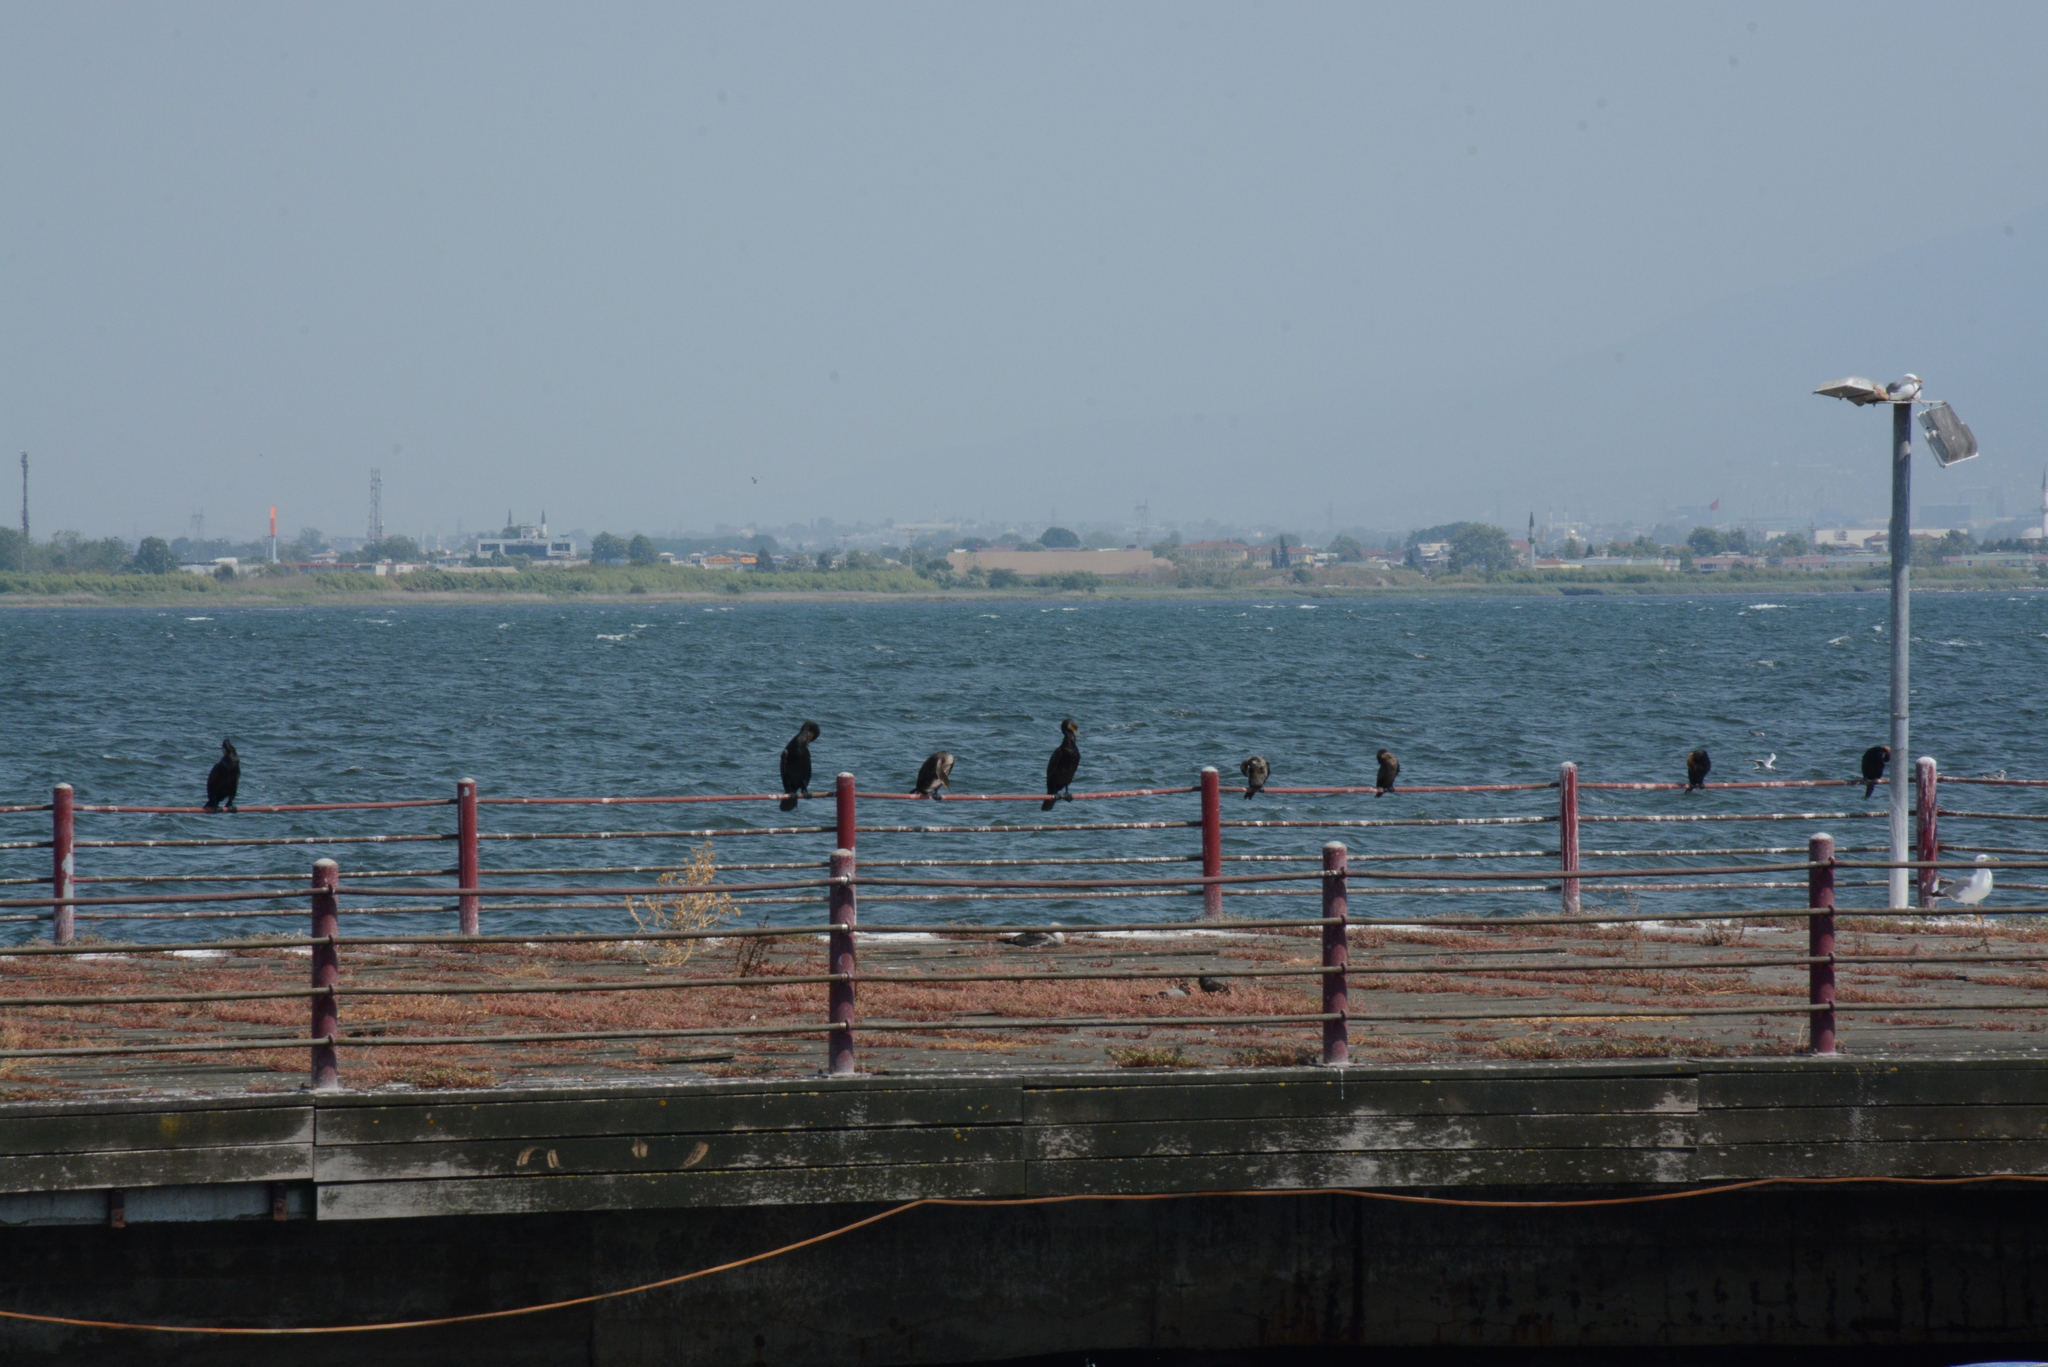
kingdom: Animalia
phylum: Chordata
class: Aves
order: Suliformes
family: Phalacrocoracidae
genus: Phalacrocorax
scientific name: Phalacrocorax carbo
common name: Great cormorant
